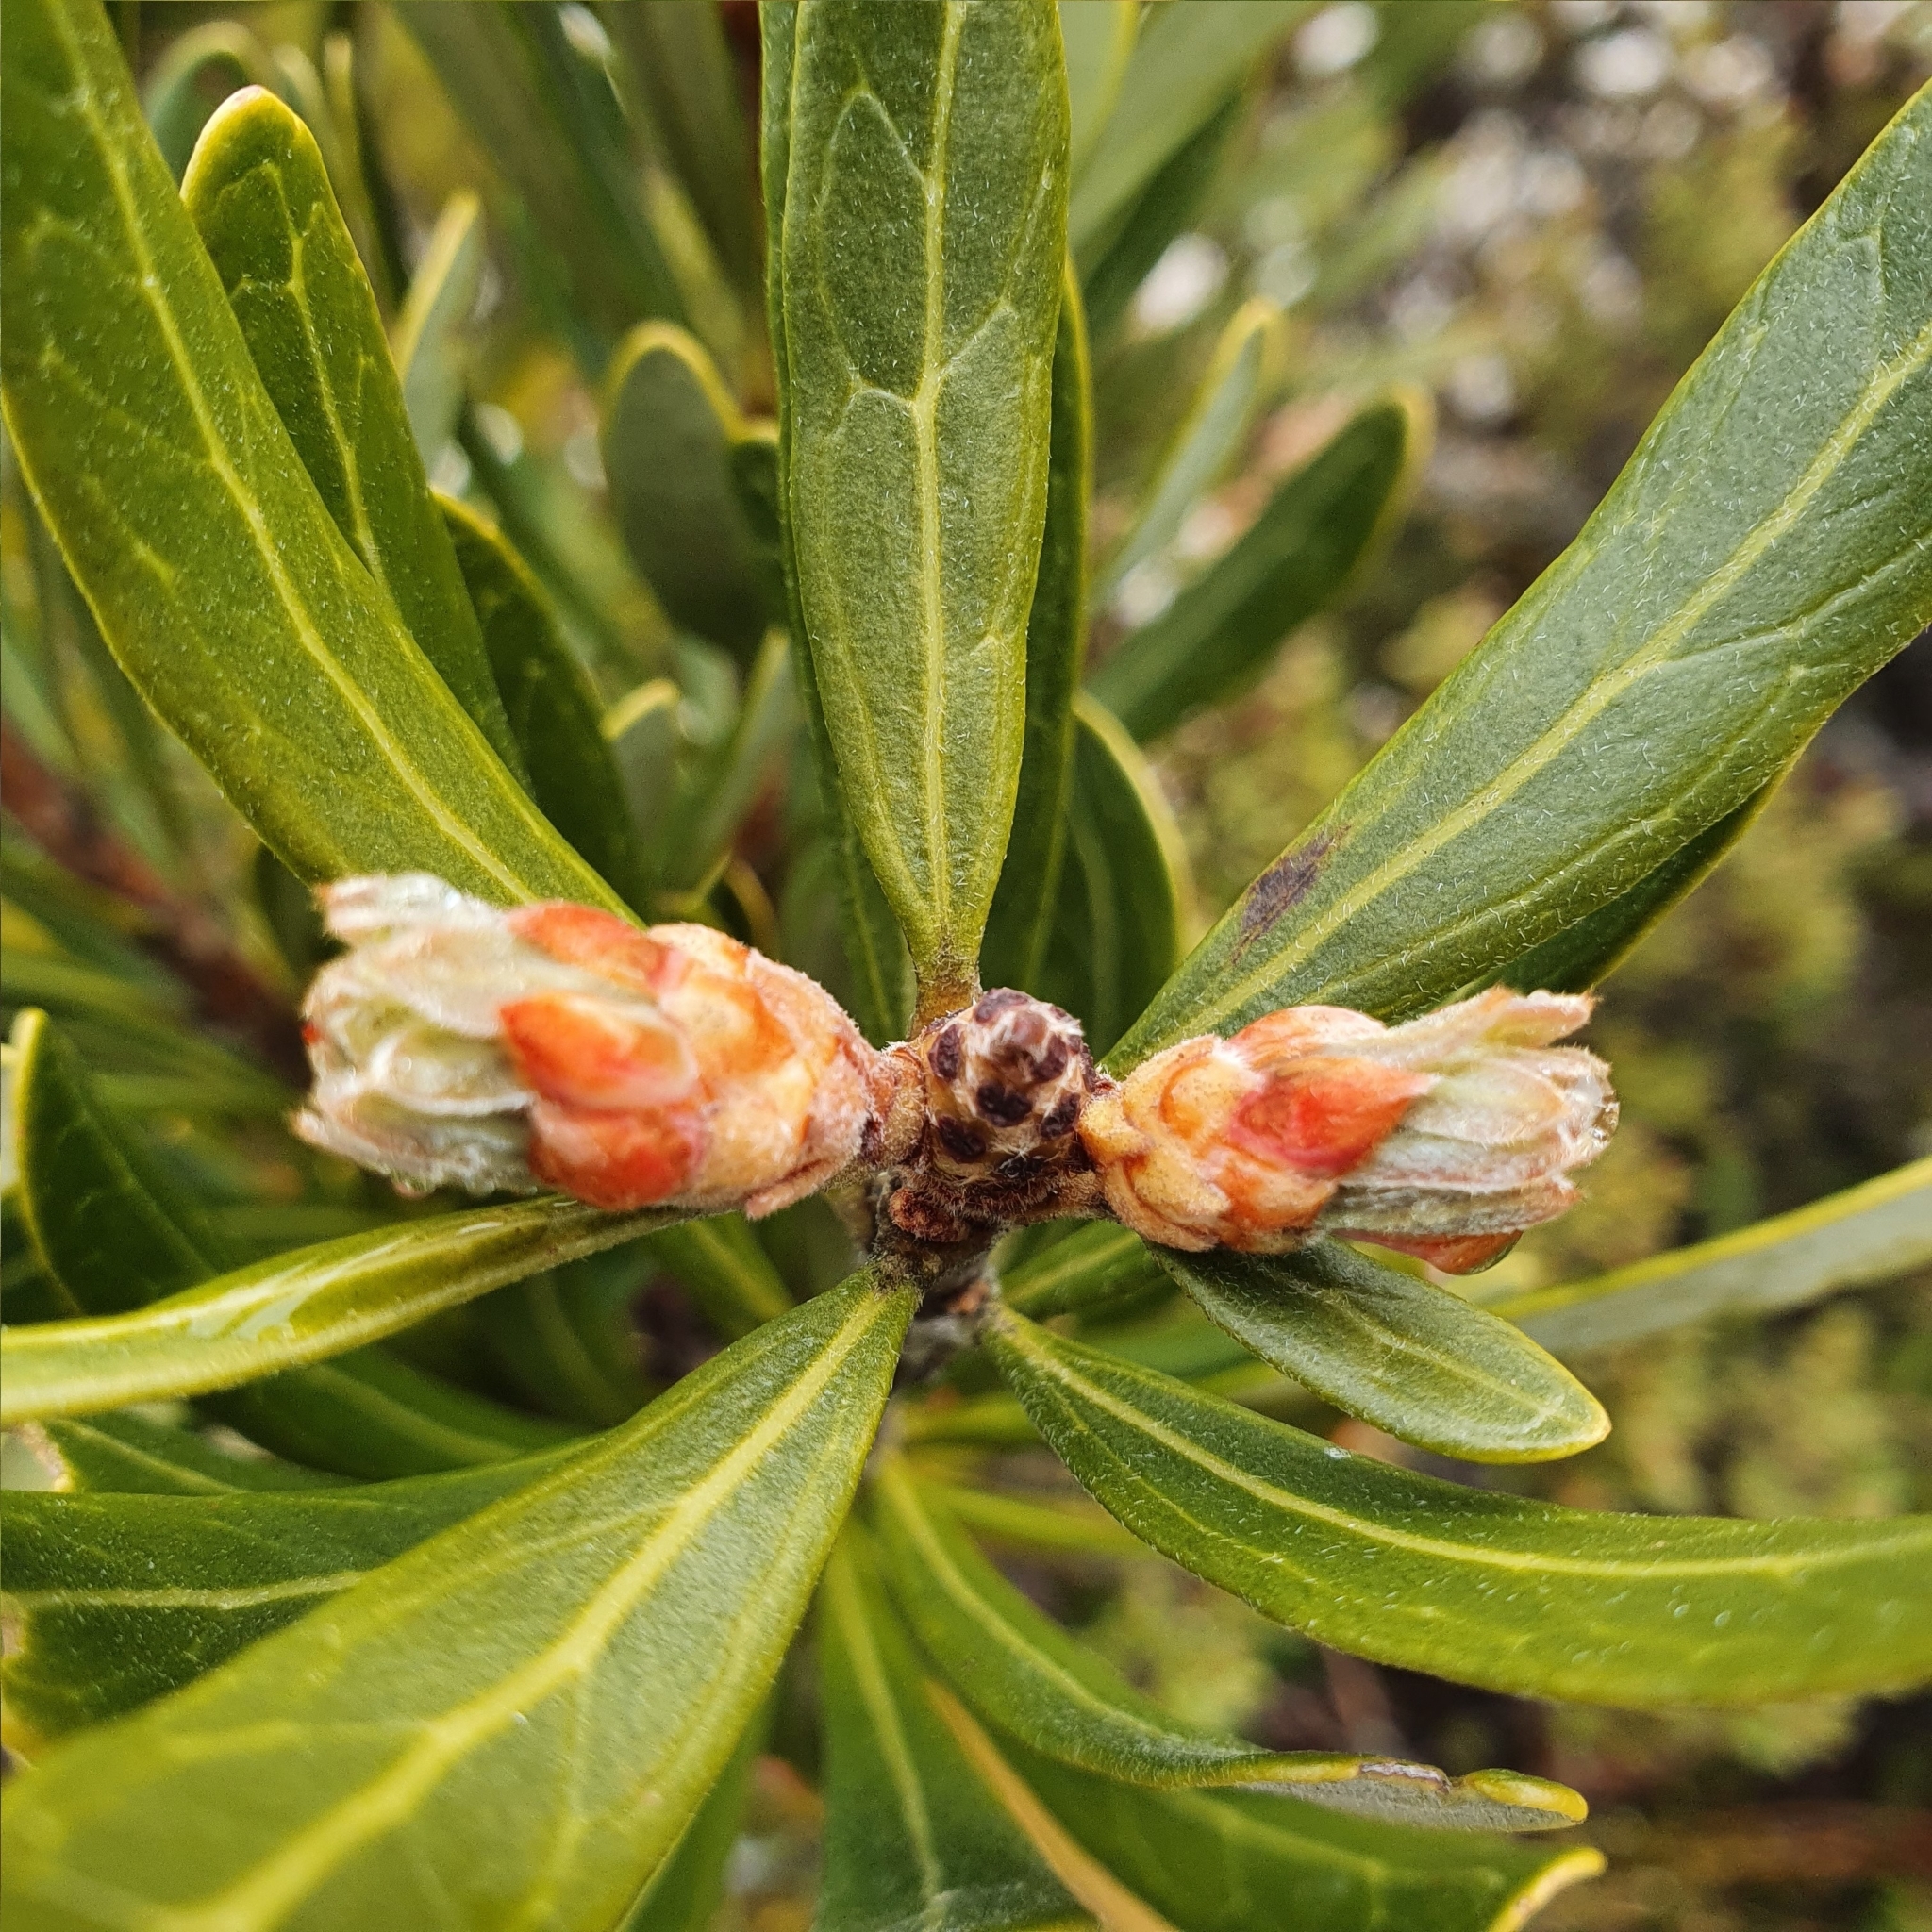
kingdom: Plantae
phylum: Tracheophyta
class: Magnoliopsida
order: Proteales
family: Proteaceae
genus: Telopea
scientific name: Telopea truncata
